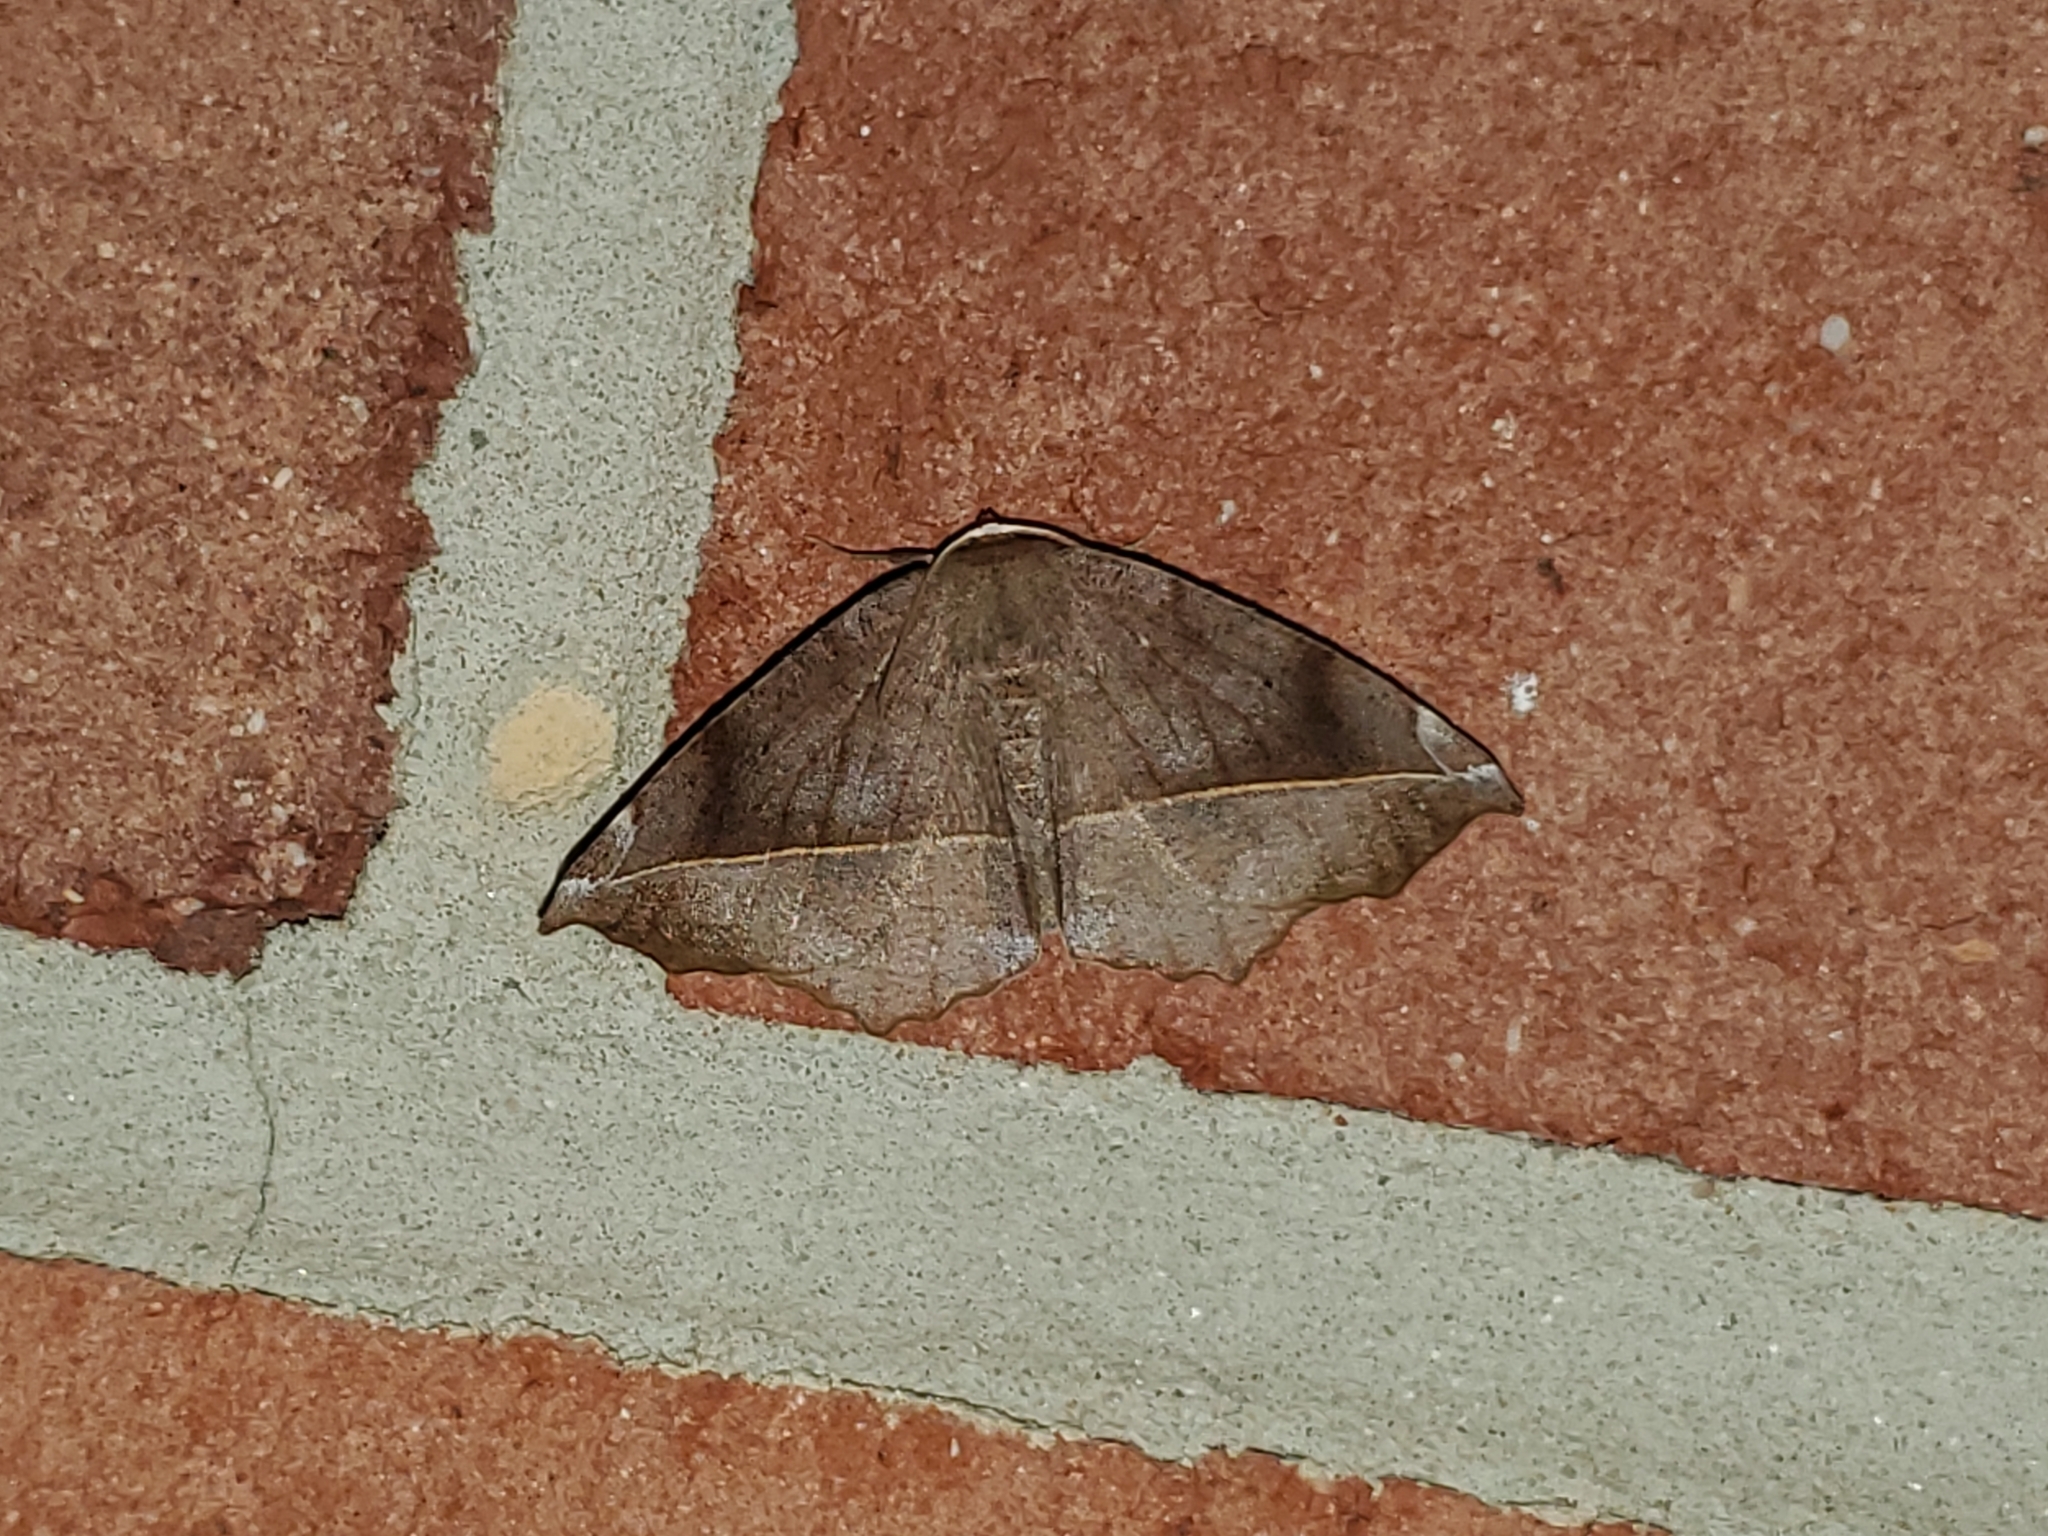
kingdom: Animalia
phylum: Arthropoda
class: Insecta
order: Lepidoptera
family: Geometridae
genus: Eutrapela
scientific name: Eutrapela clemataria
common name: Curved-toothed geometer
